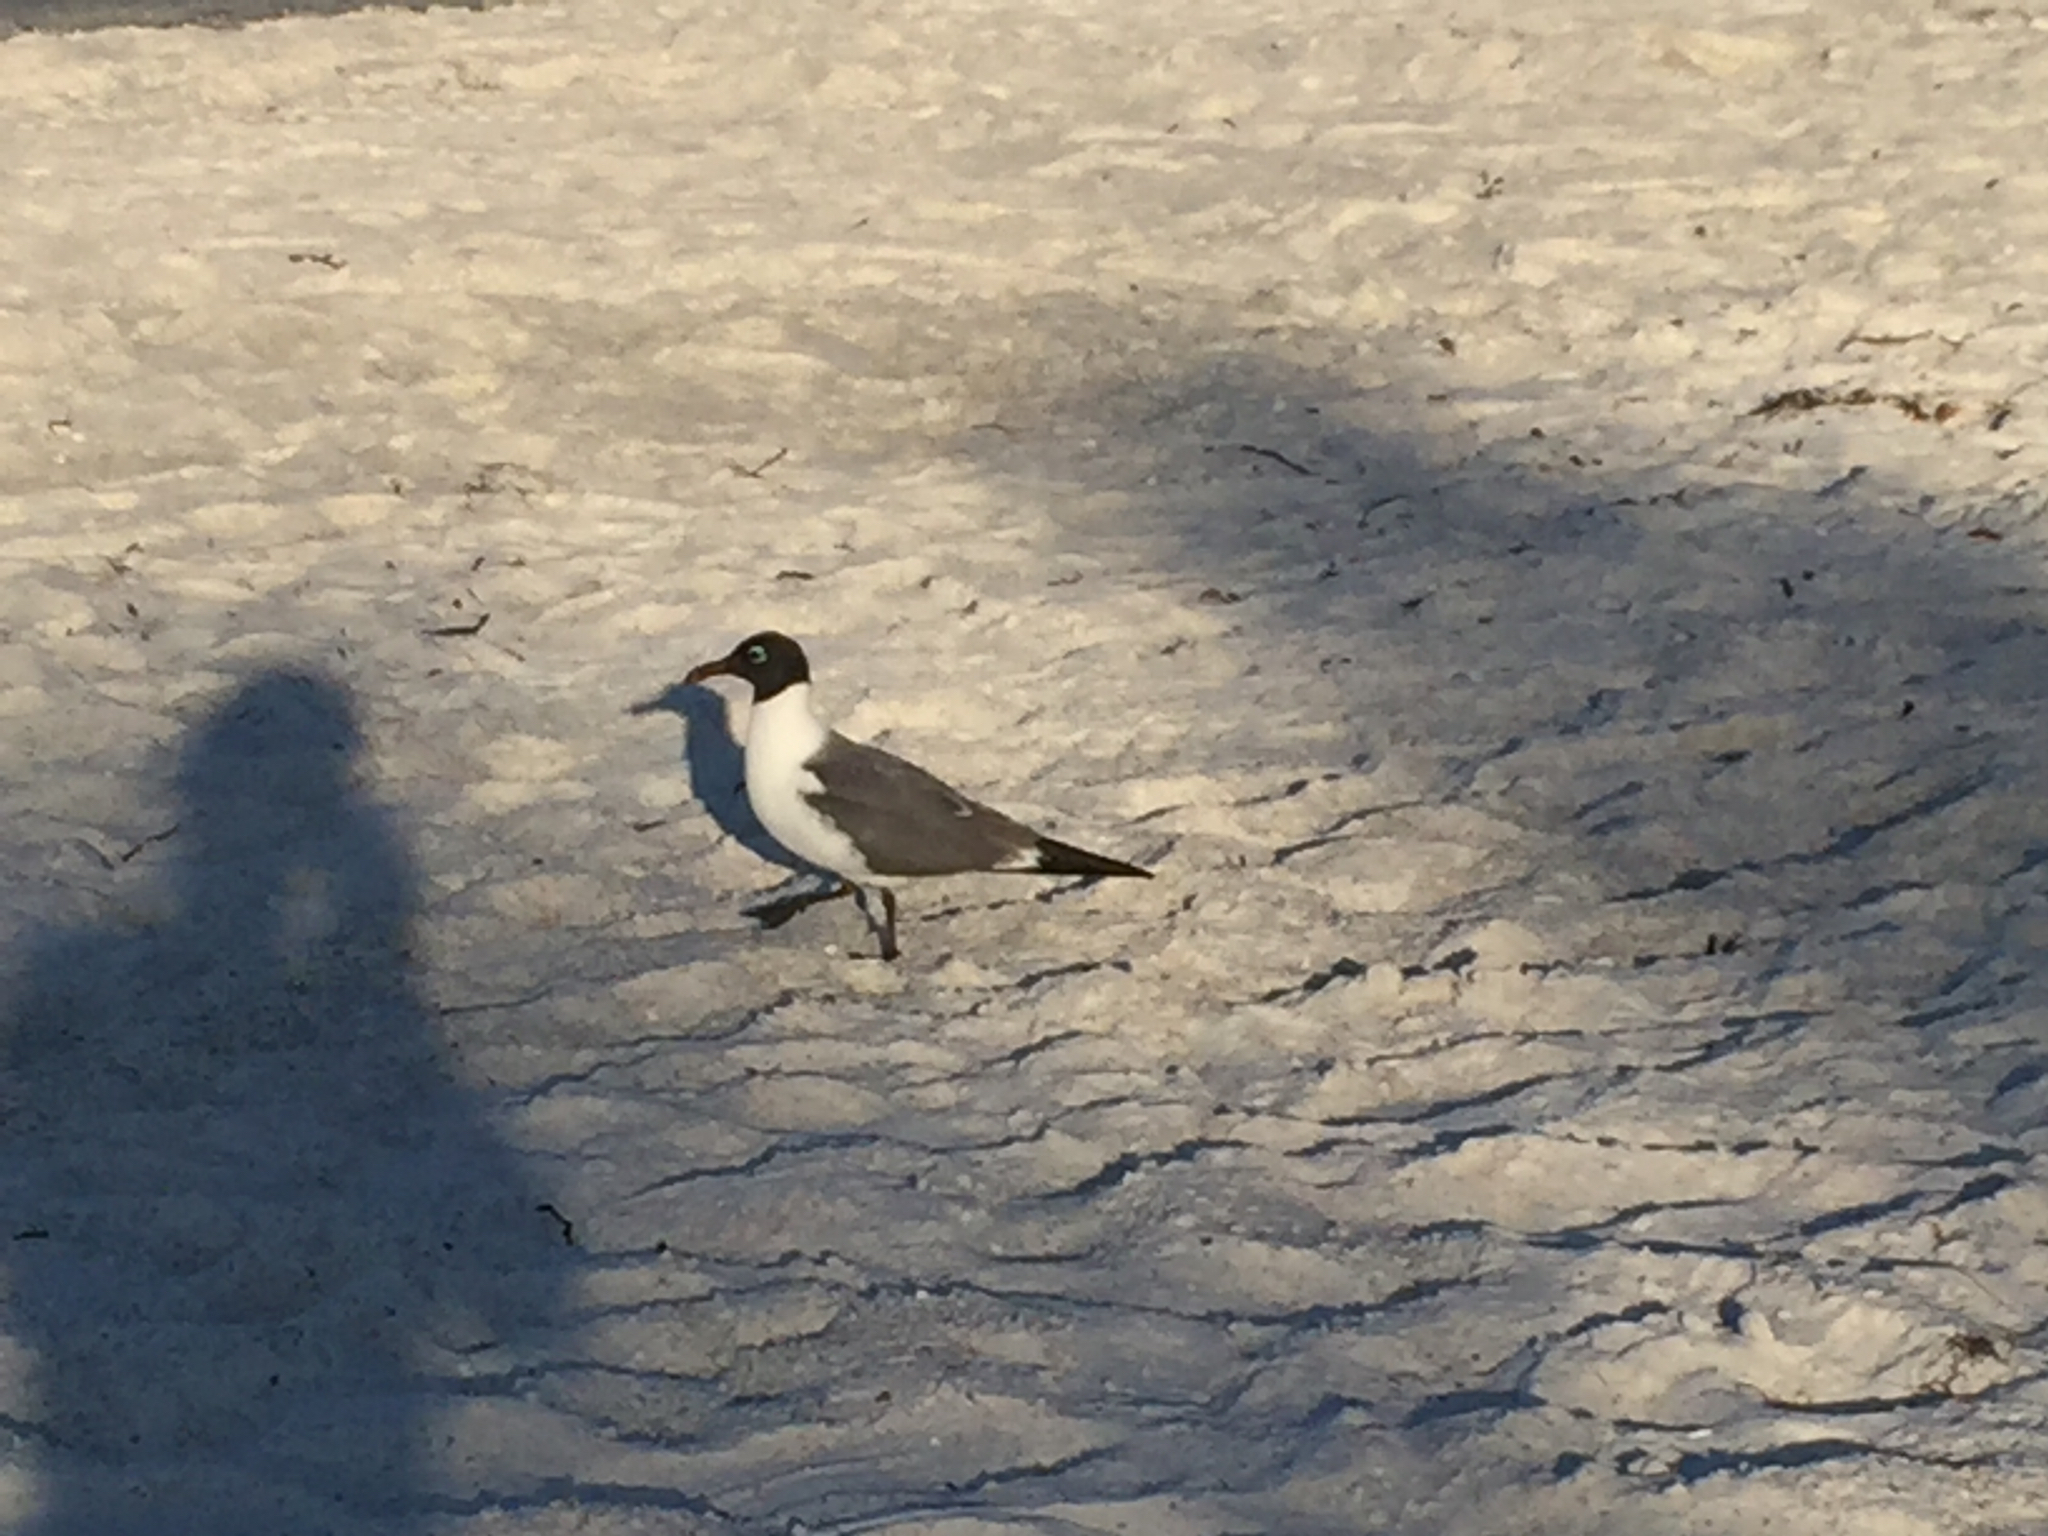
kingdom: Animalia
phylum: Chordata
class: Aves
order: Charadriiformes
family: Laridae
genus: Leucophaeus
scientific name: Leucophaeus atricilla
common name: Laughing gull
